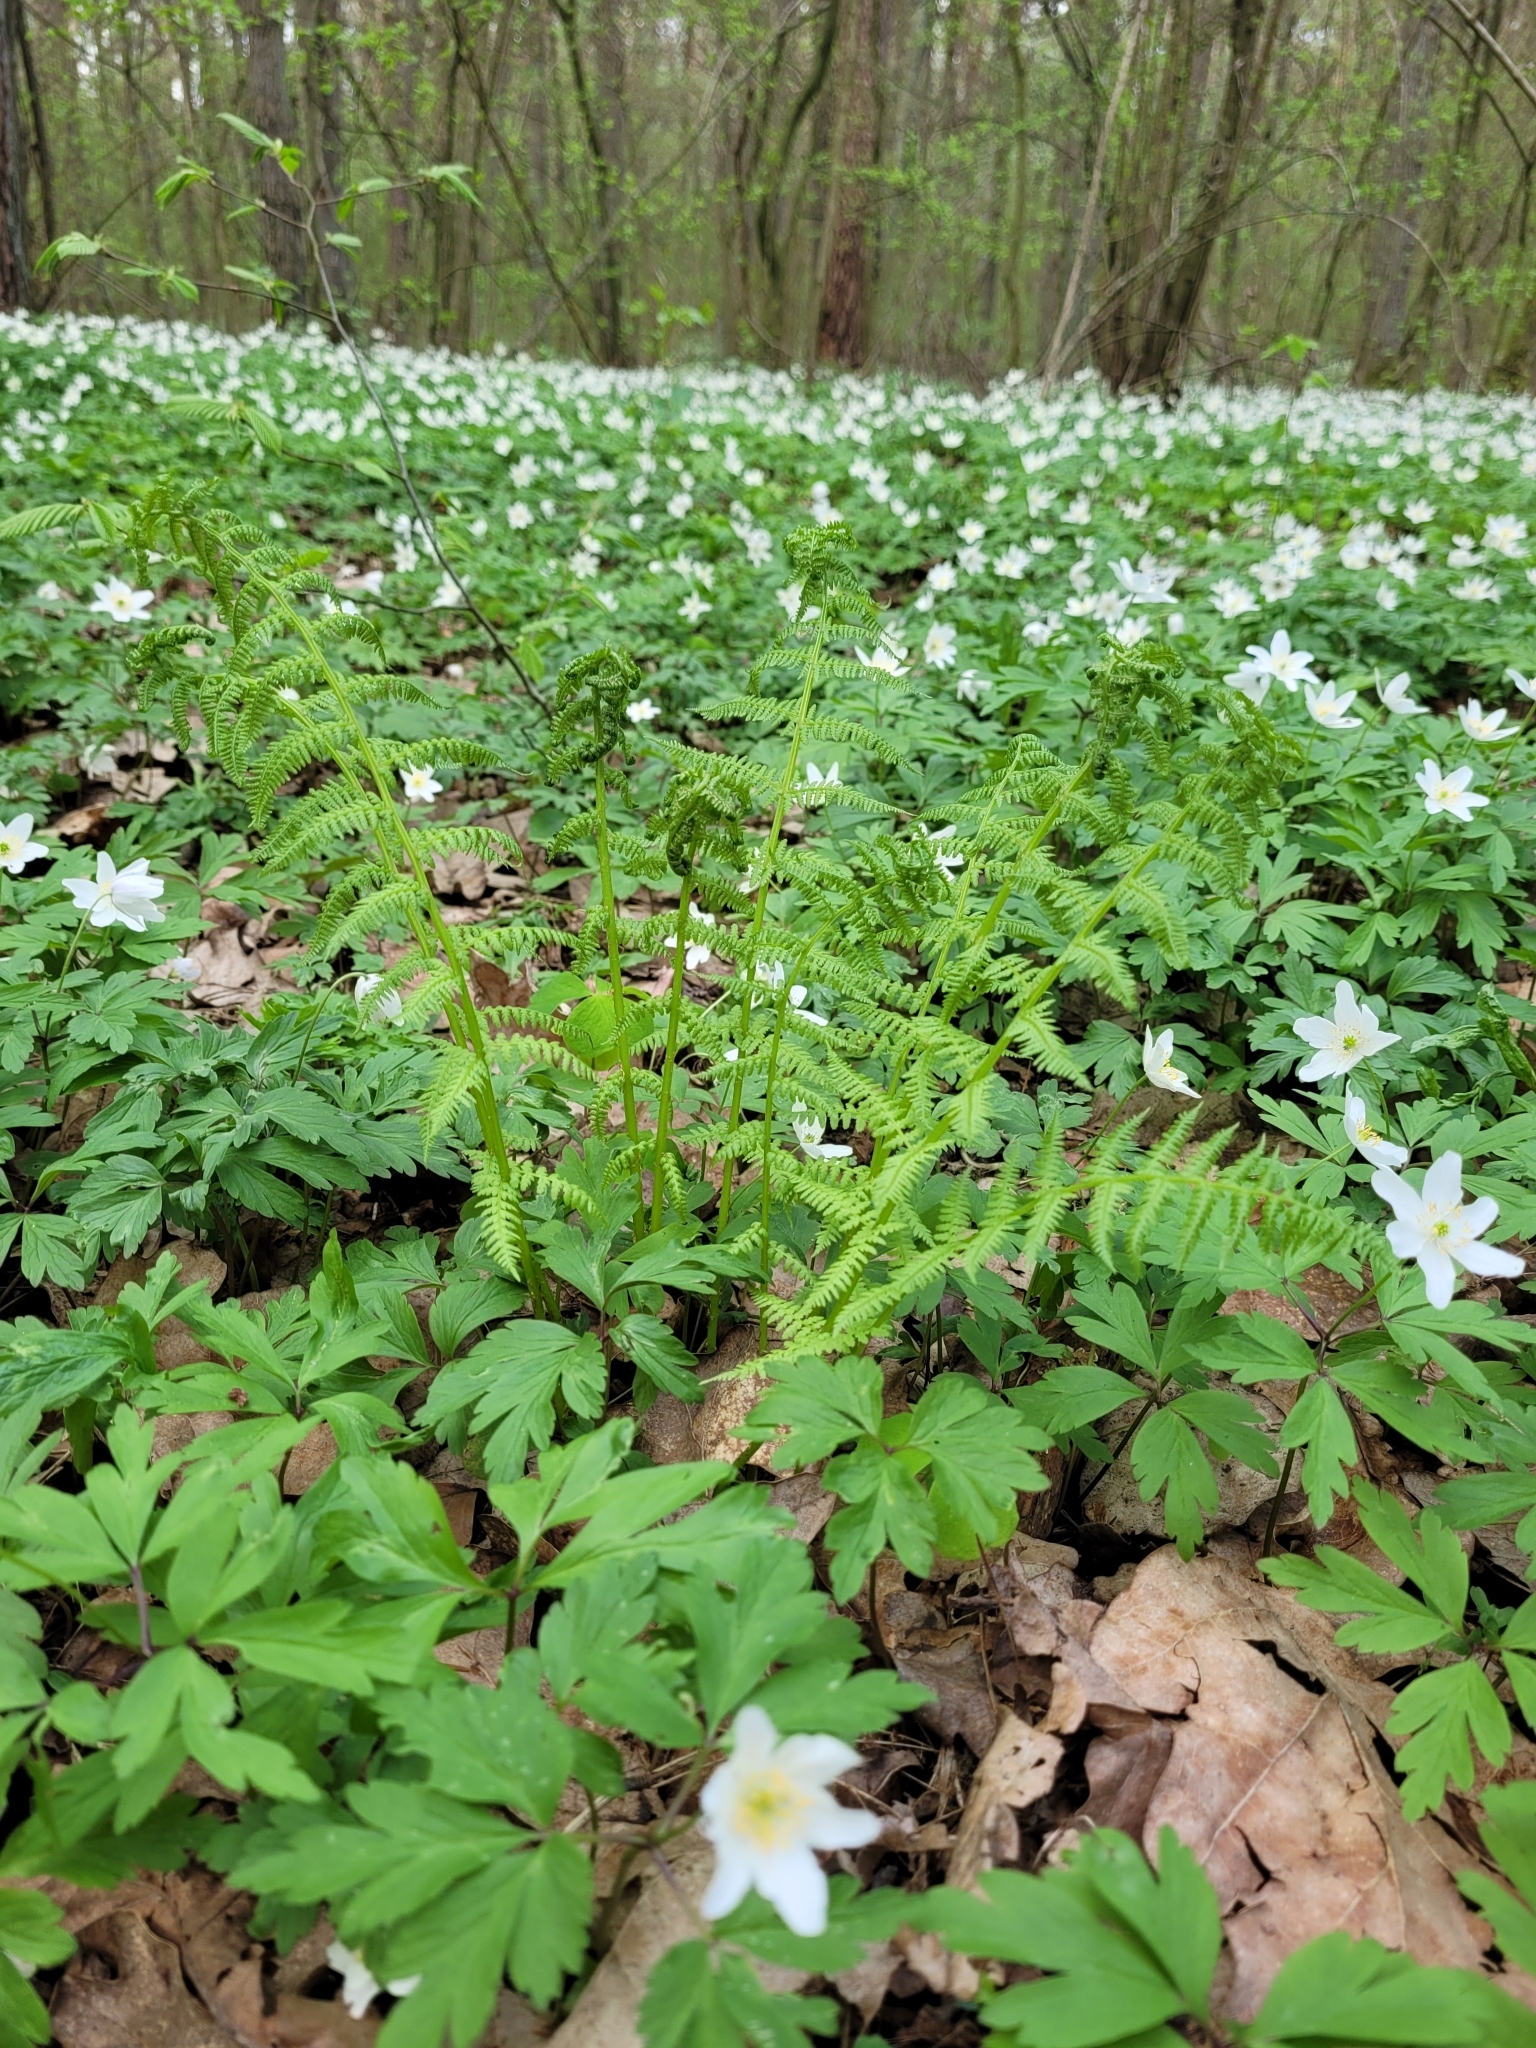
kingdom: Plantae
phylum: Tracheophyta
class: Polypodiopsida
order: Polypodiales
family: Athyriaceae
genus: Athyrium
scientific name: Athyrium filix-femina
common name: Lady fern
